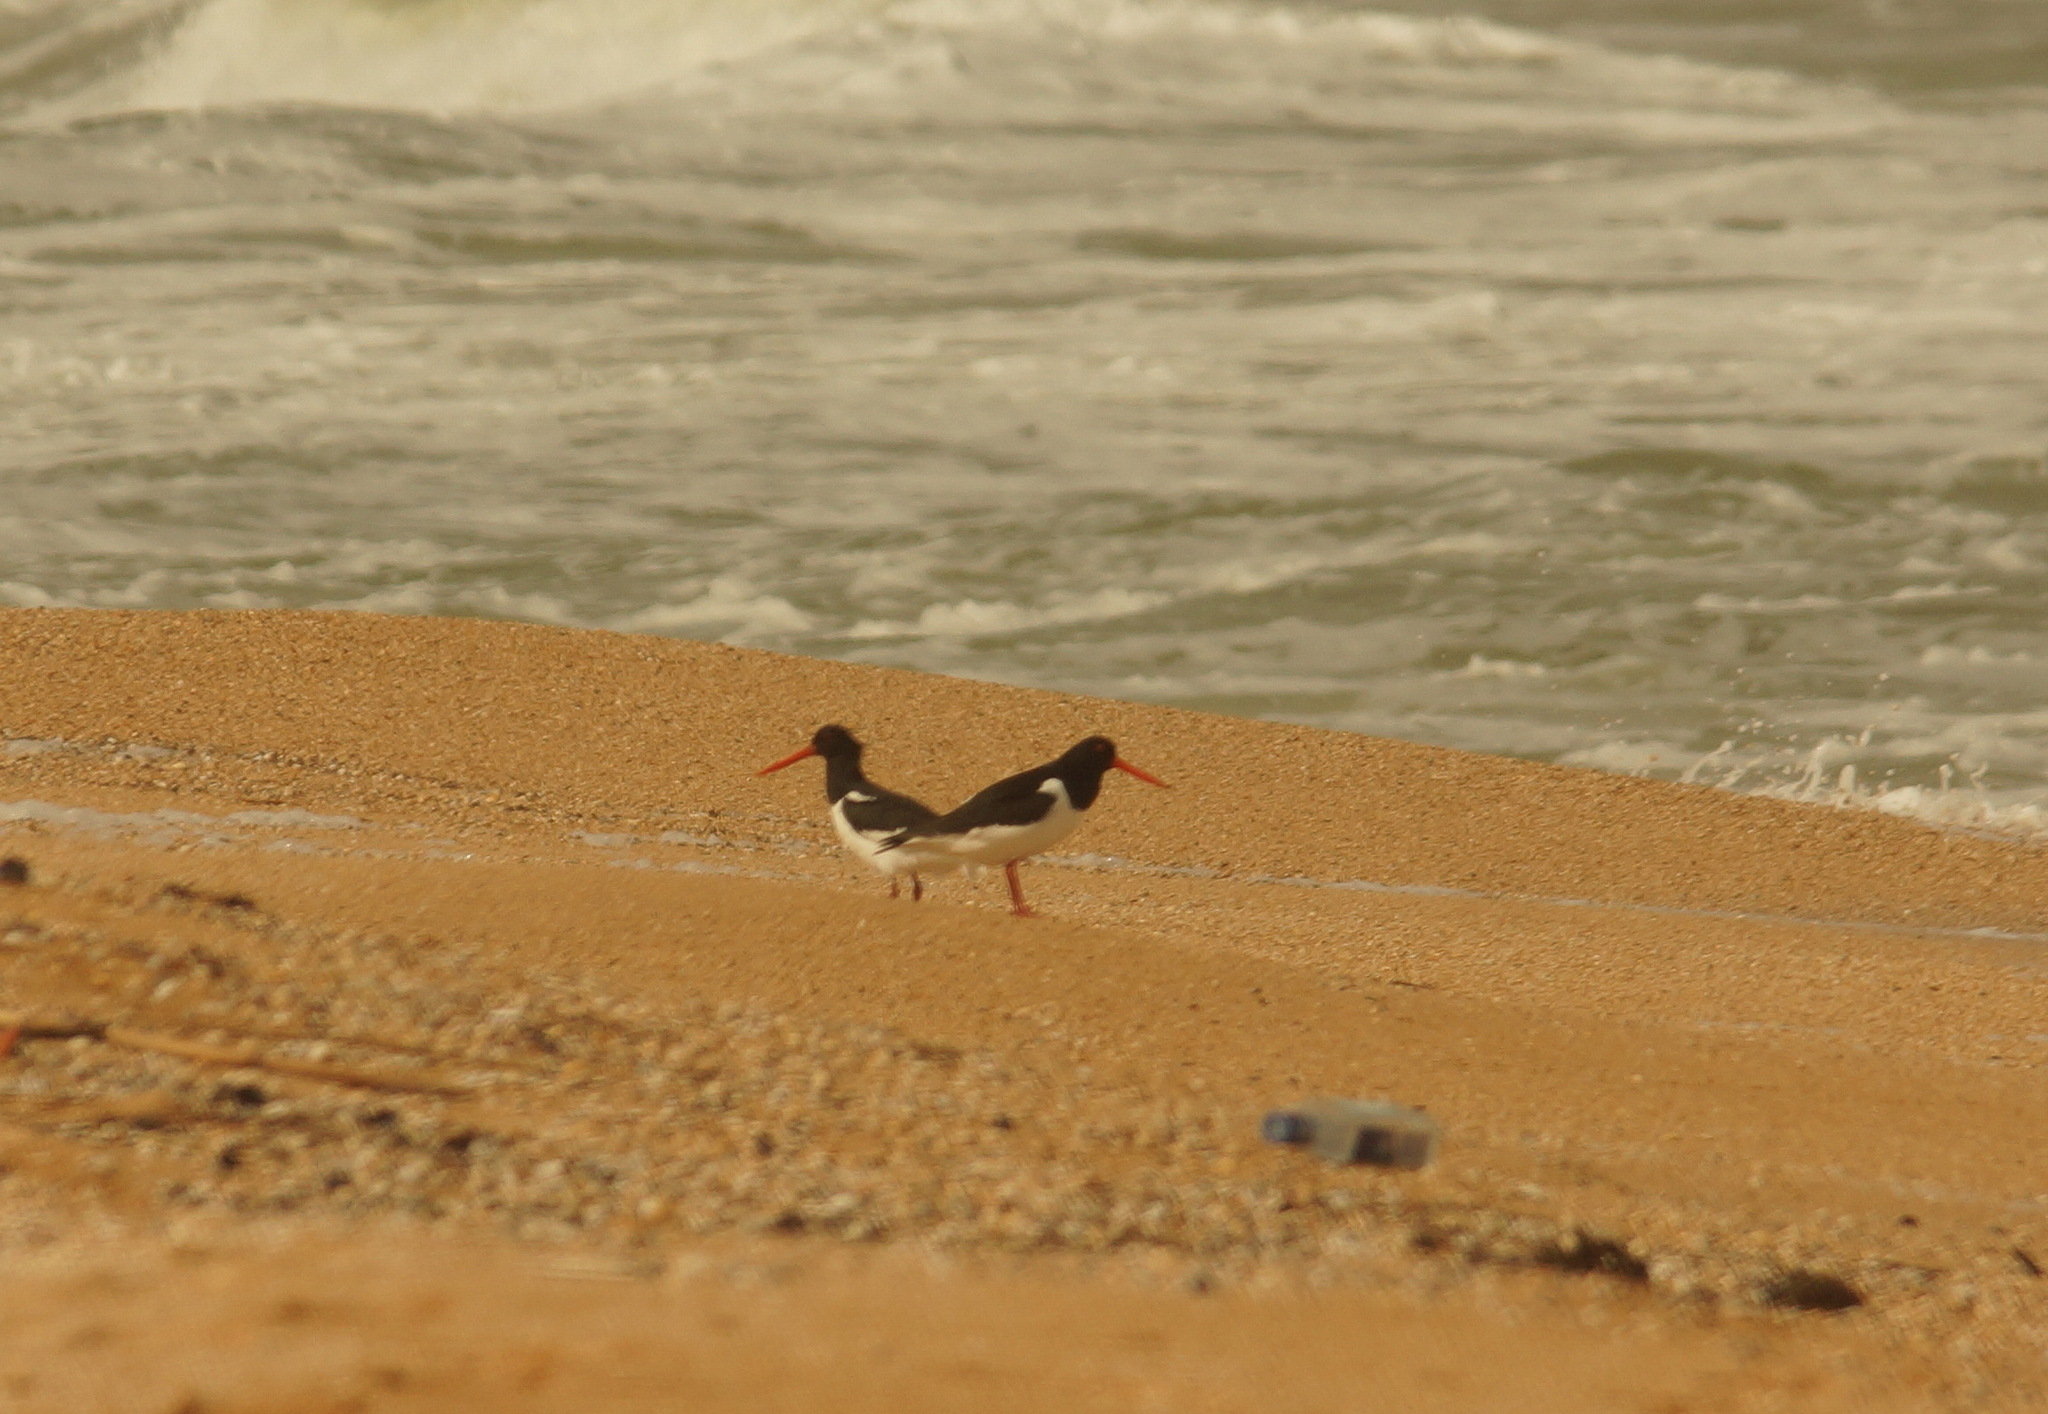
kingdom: Animalia
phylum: Chordata
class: Aves
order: Charadriiformes
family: Haematopodidae
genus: Haematopus
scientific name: Haematopus ostralegus
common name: Eurasian oystercatcher
